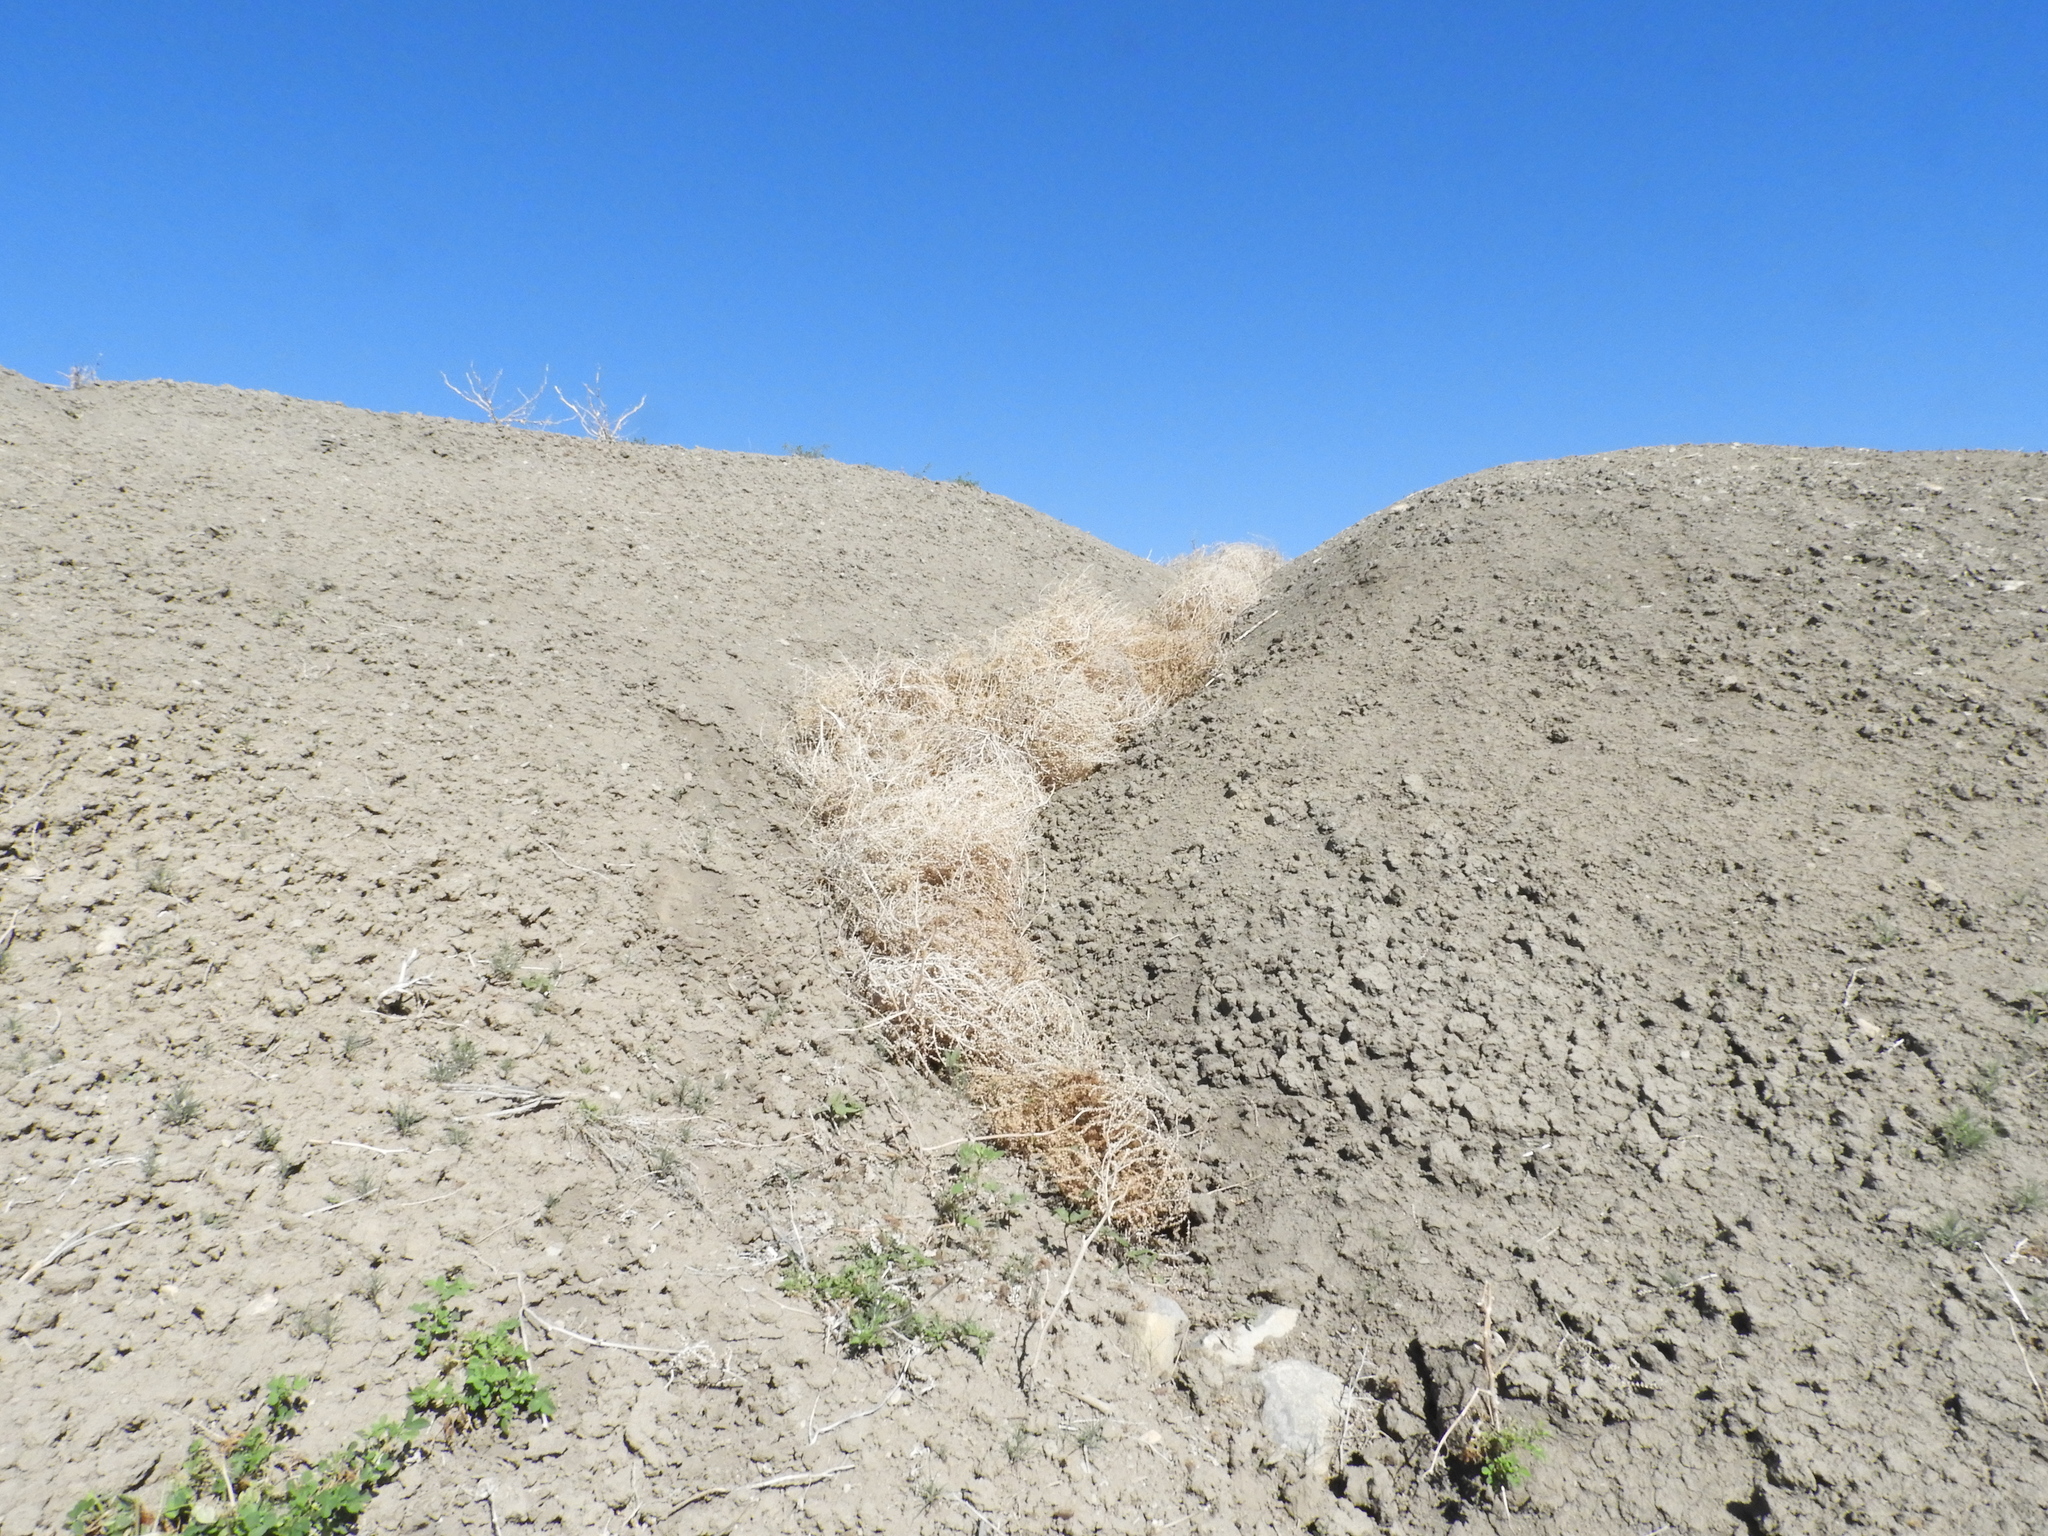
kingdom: Plantae
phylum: Tracheophyta
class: Magnoliopsida
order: Caryophyllales
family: Amaranthaceae
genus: Salsola
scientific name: Salsola tragus
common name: Prickly russian thistle
